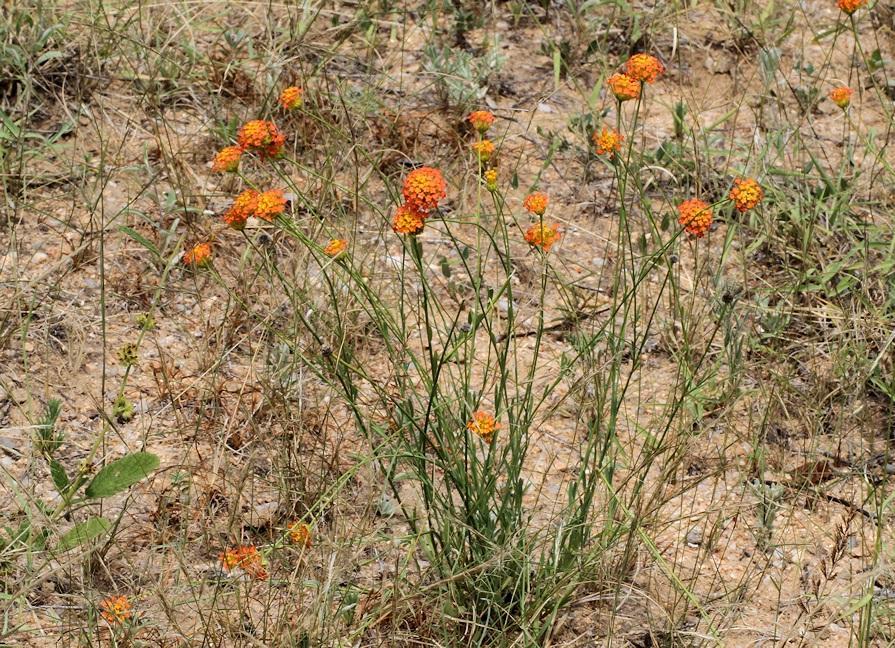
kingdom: Plantae
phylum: Tracheophyta
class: Magnoliopsida
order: Malvales
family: Thymelaeaceae
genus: Gnidia
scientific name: Gnidia rubescens
